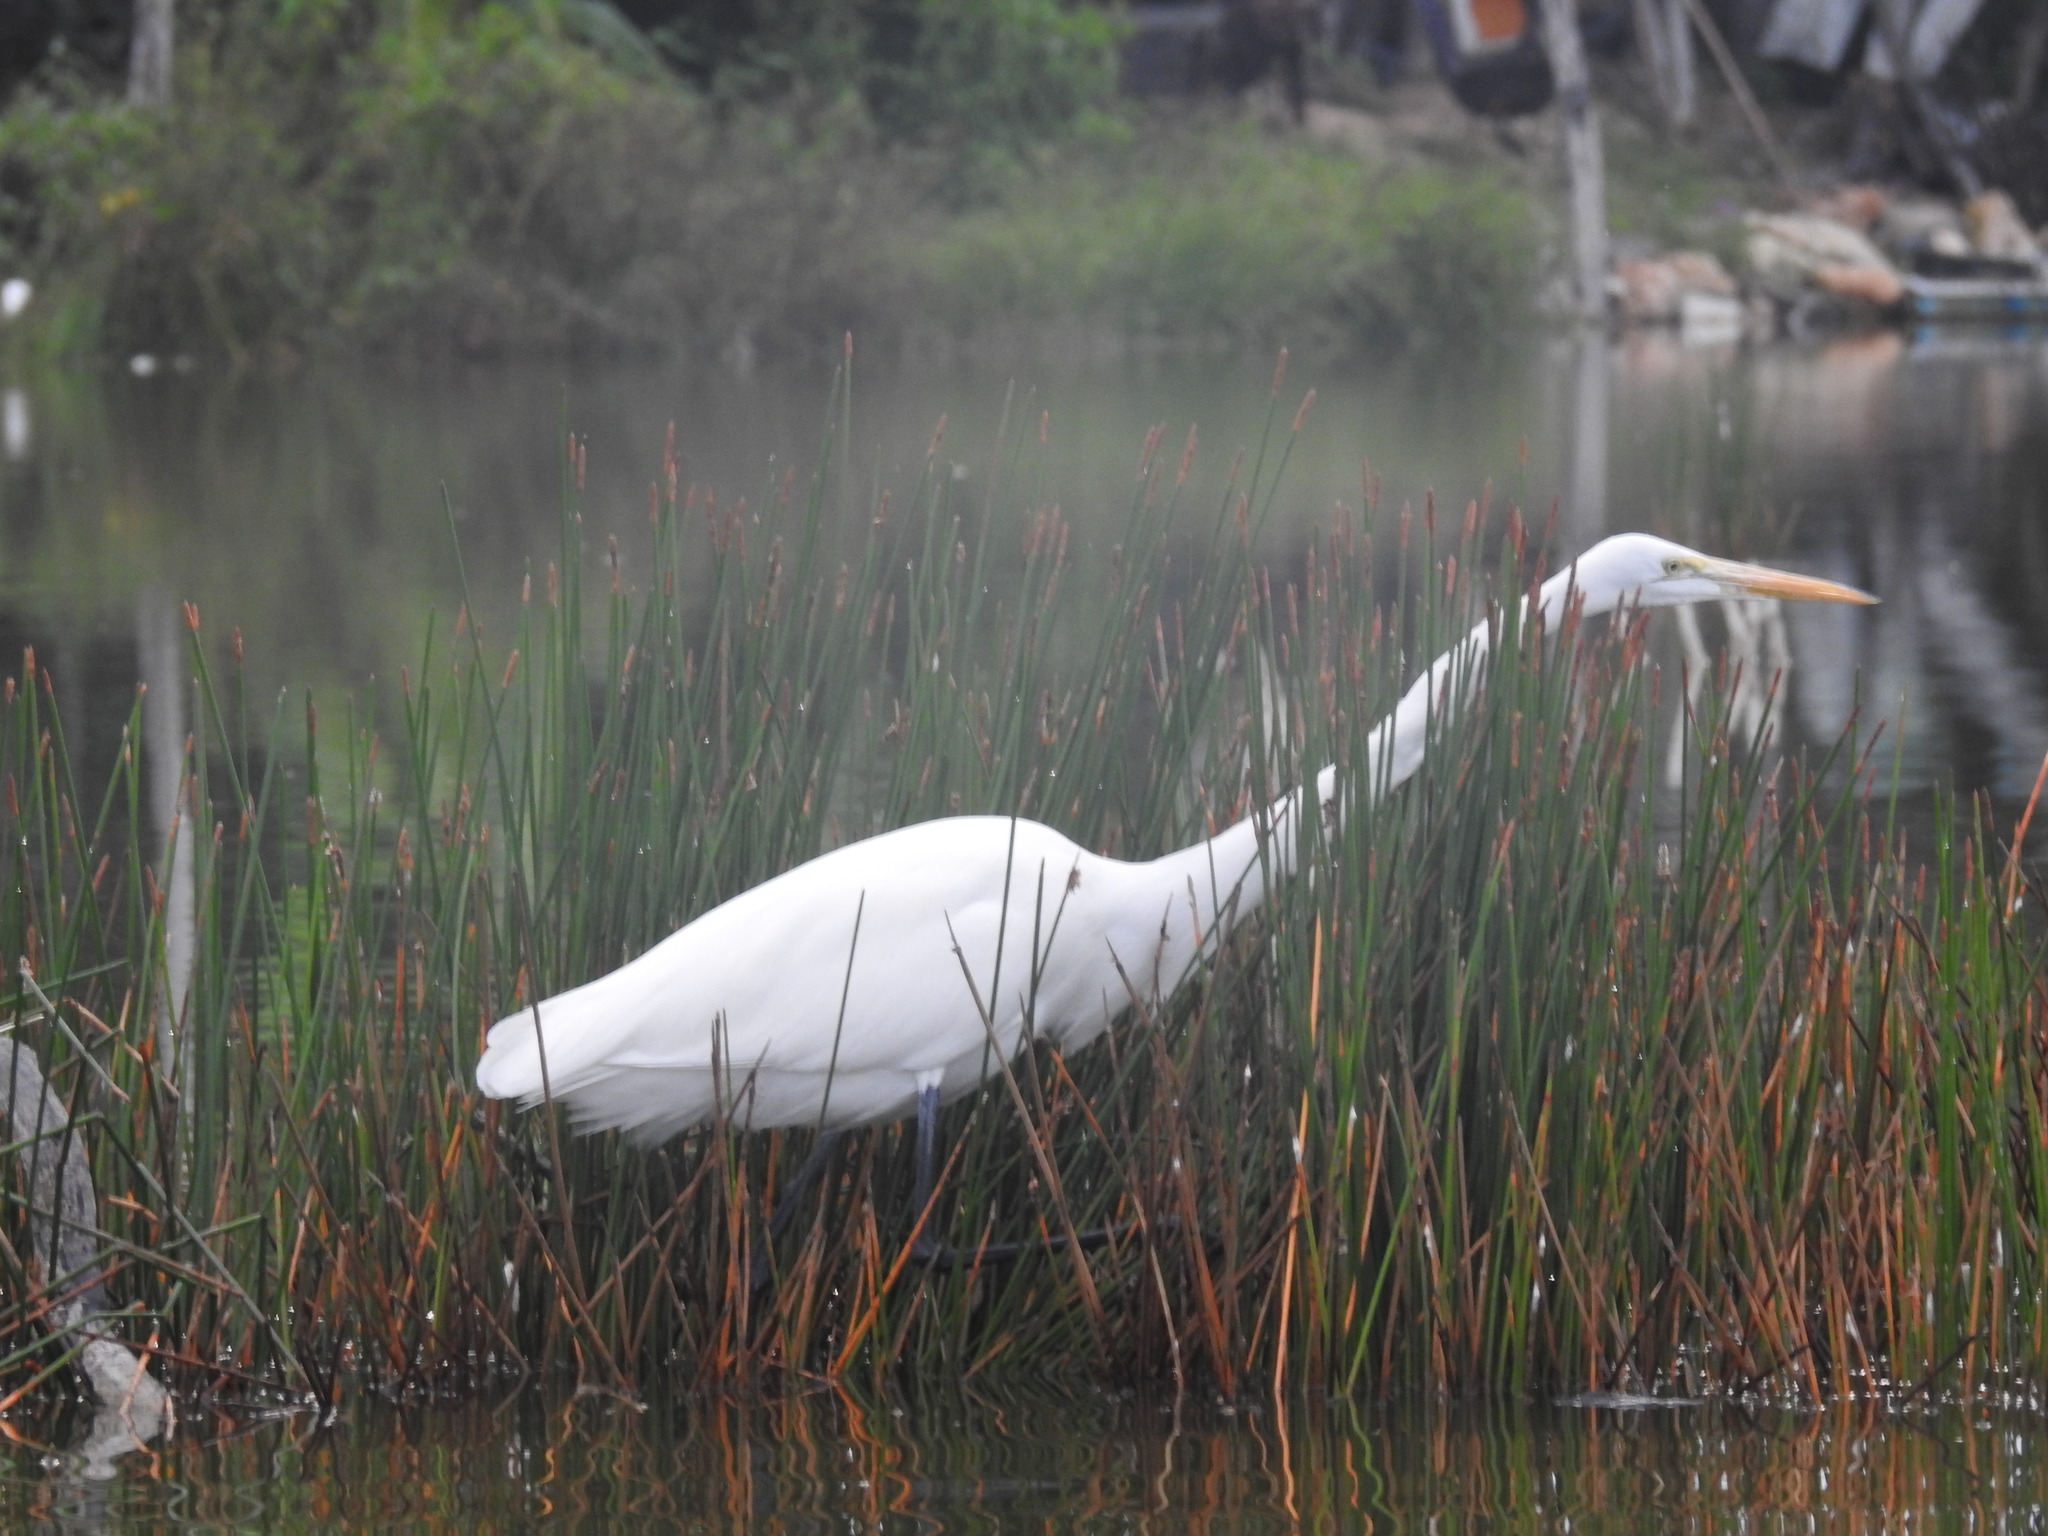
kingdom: Animalia
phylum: Chordata
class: Aves
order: Pelecaniformes
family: Ardeidae
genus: Ardea
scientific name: Ardea alba
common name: Great egret
